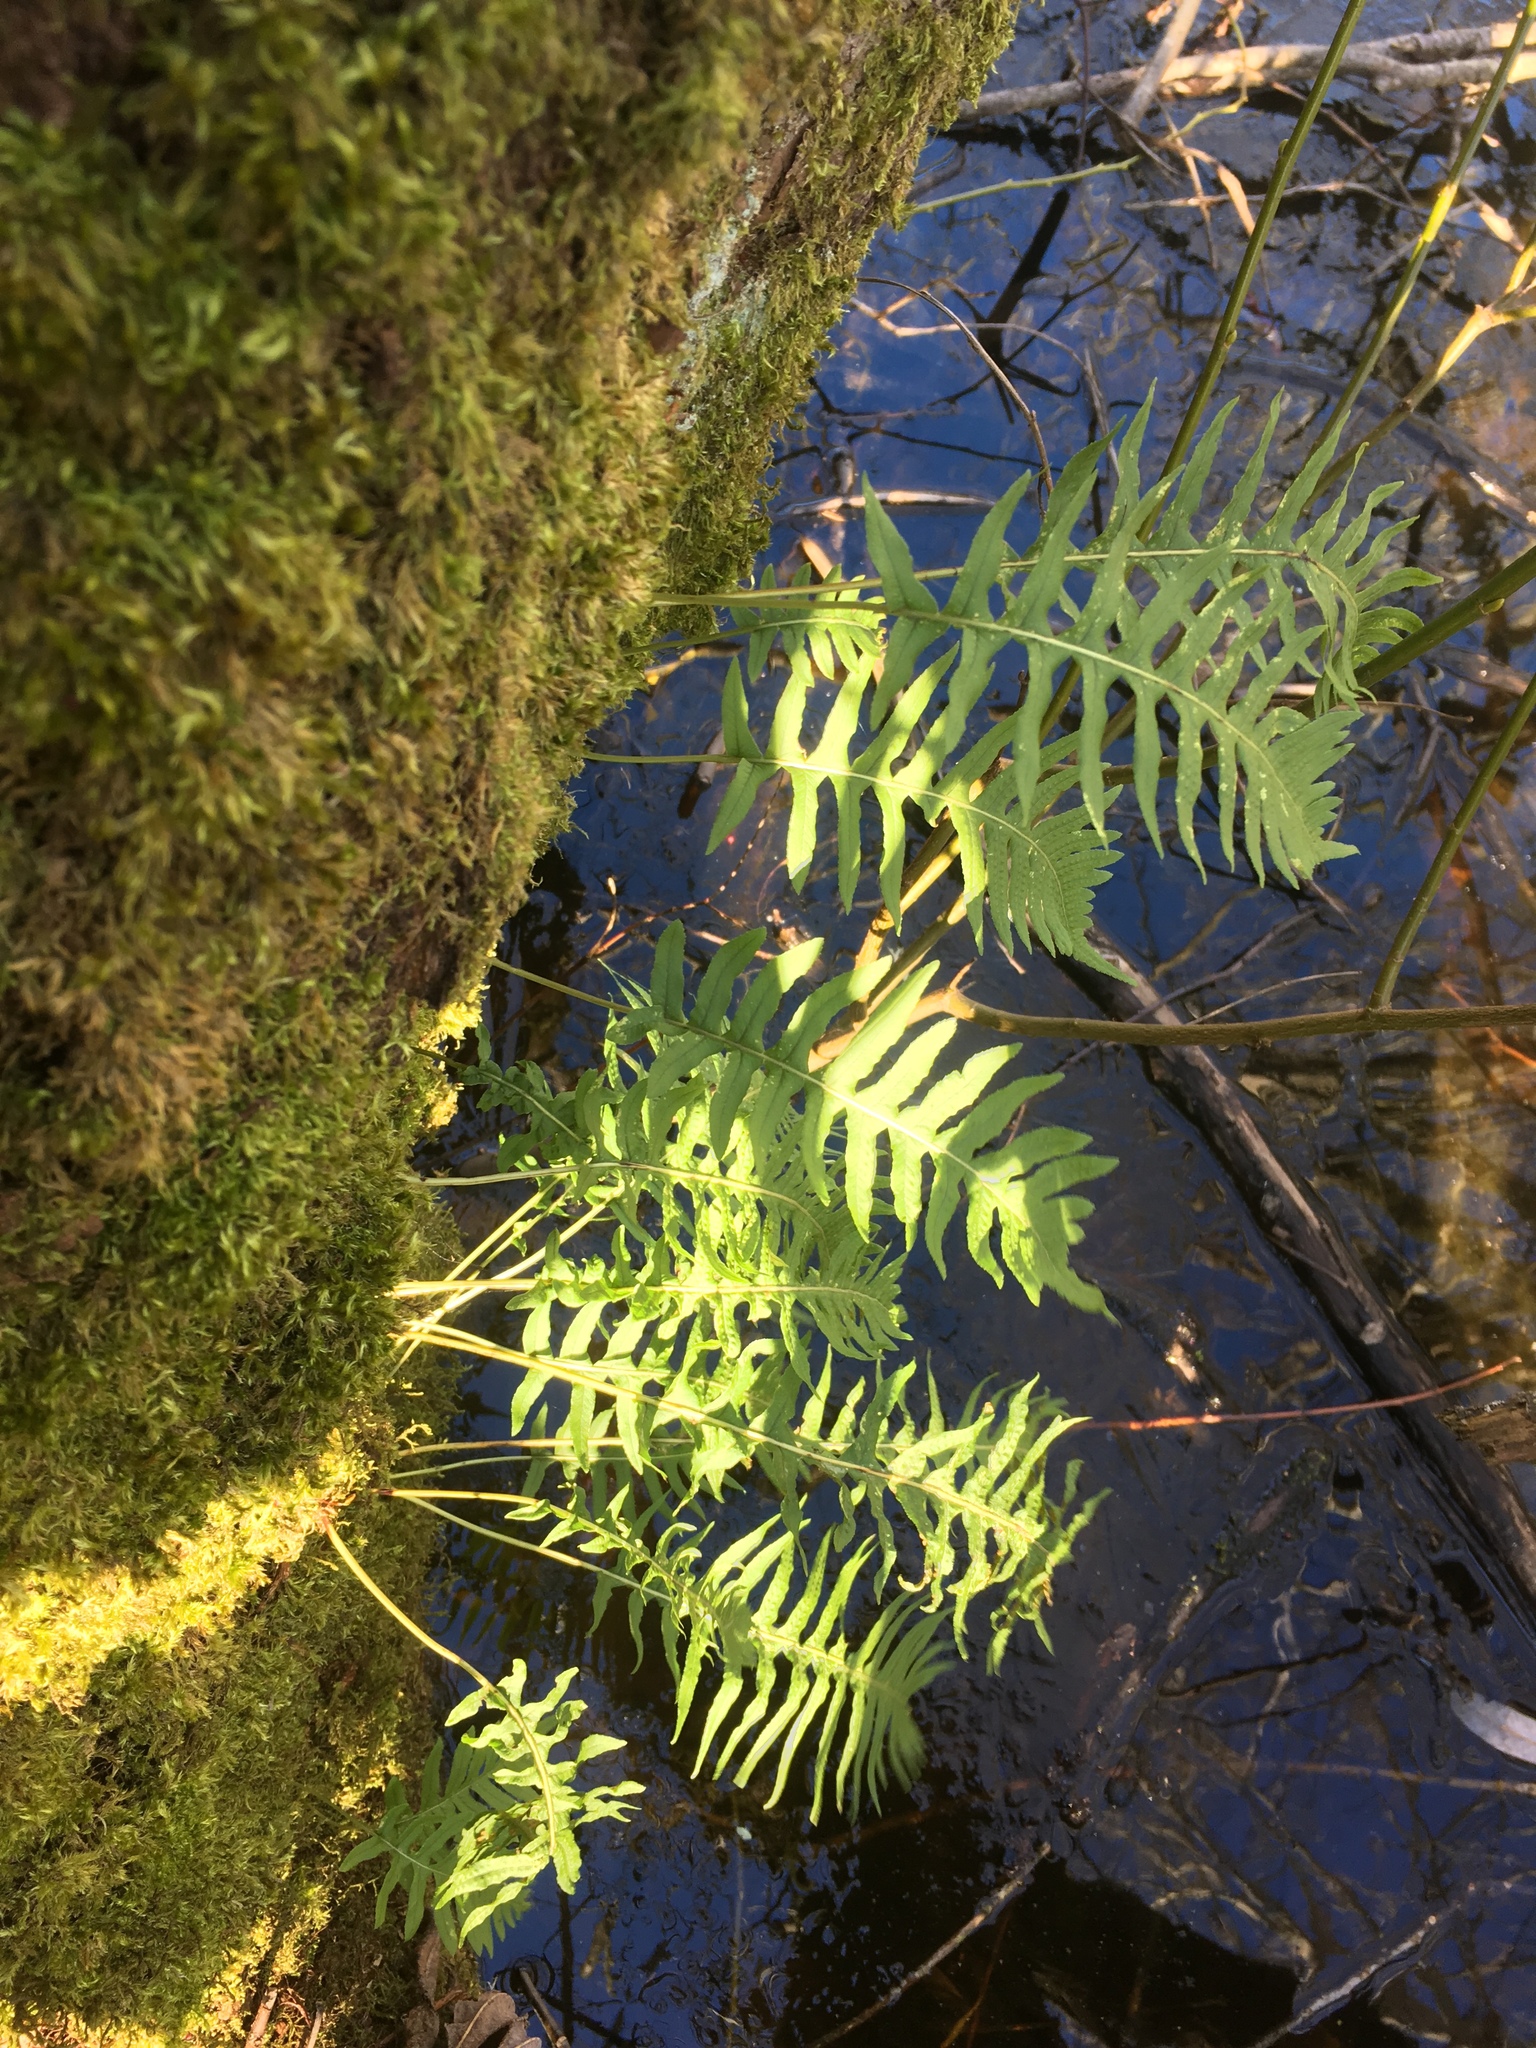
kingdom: Plantae
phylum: Tracheophyta
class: Polypodiopsida
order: Polypodiales
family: Polypodiaceae
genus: Polypodium
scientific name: Polypodium glycyrrhiza
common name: Licorice fern
